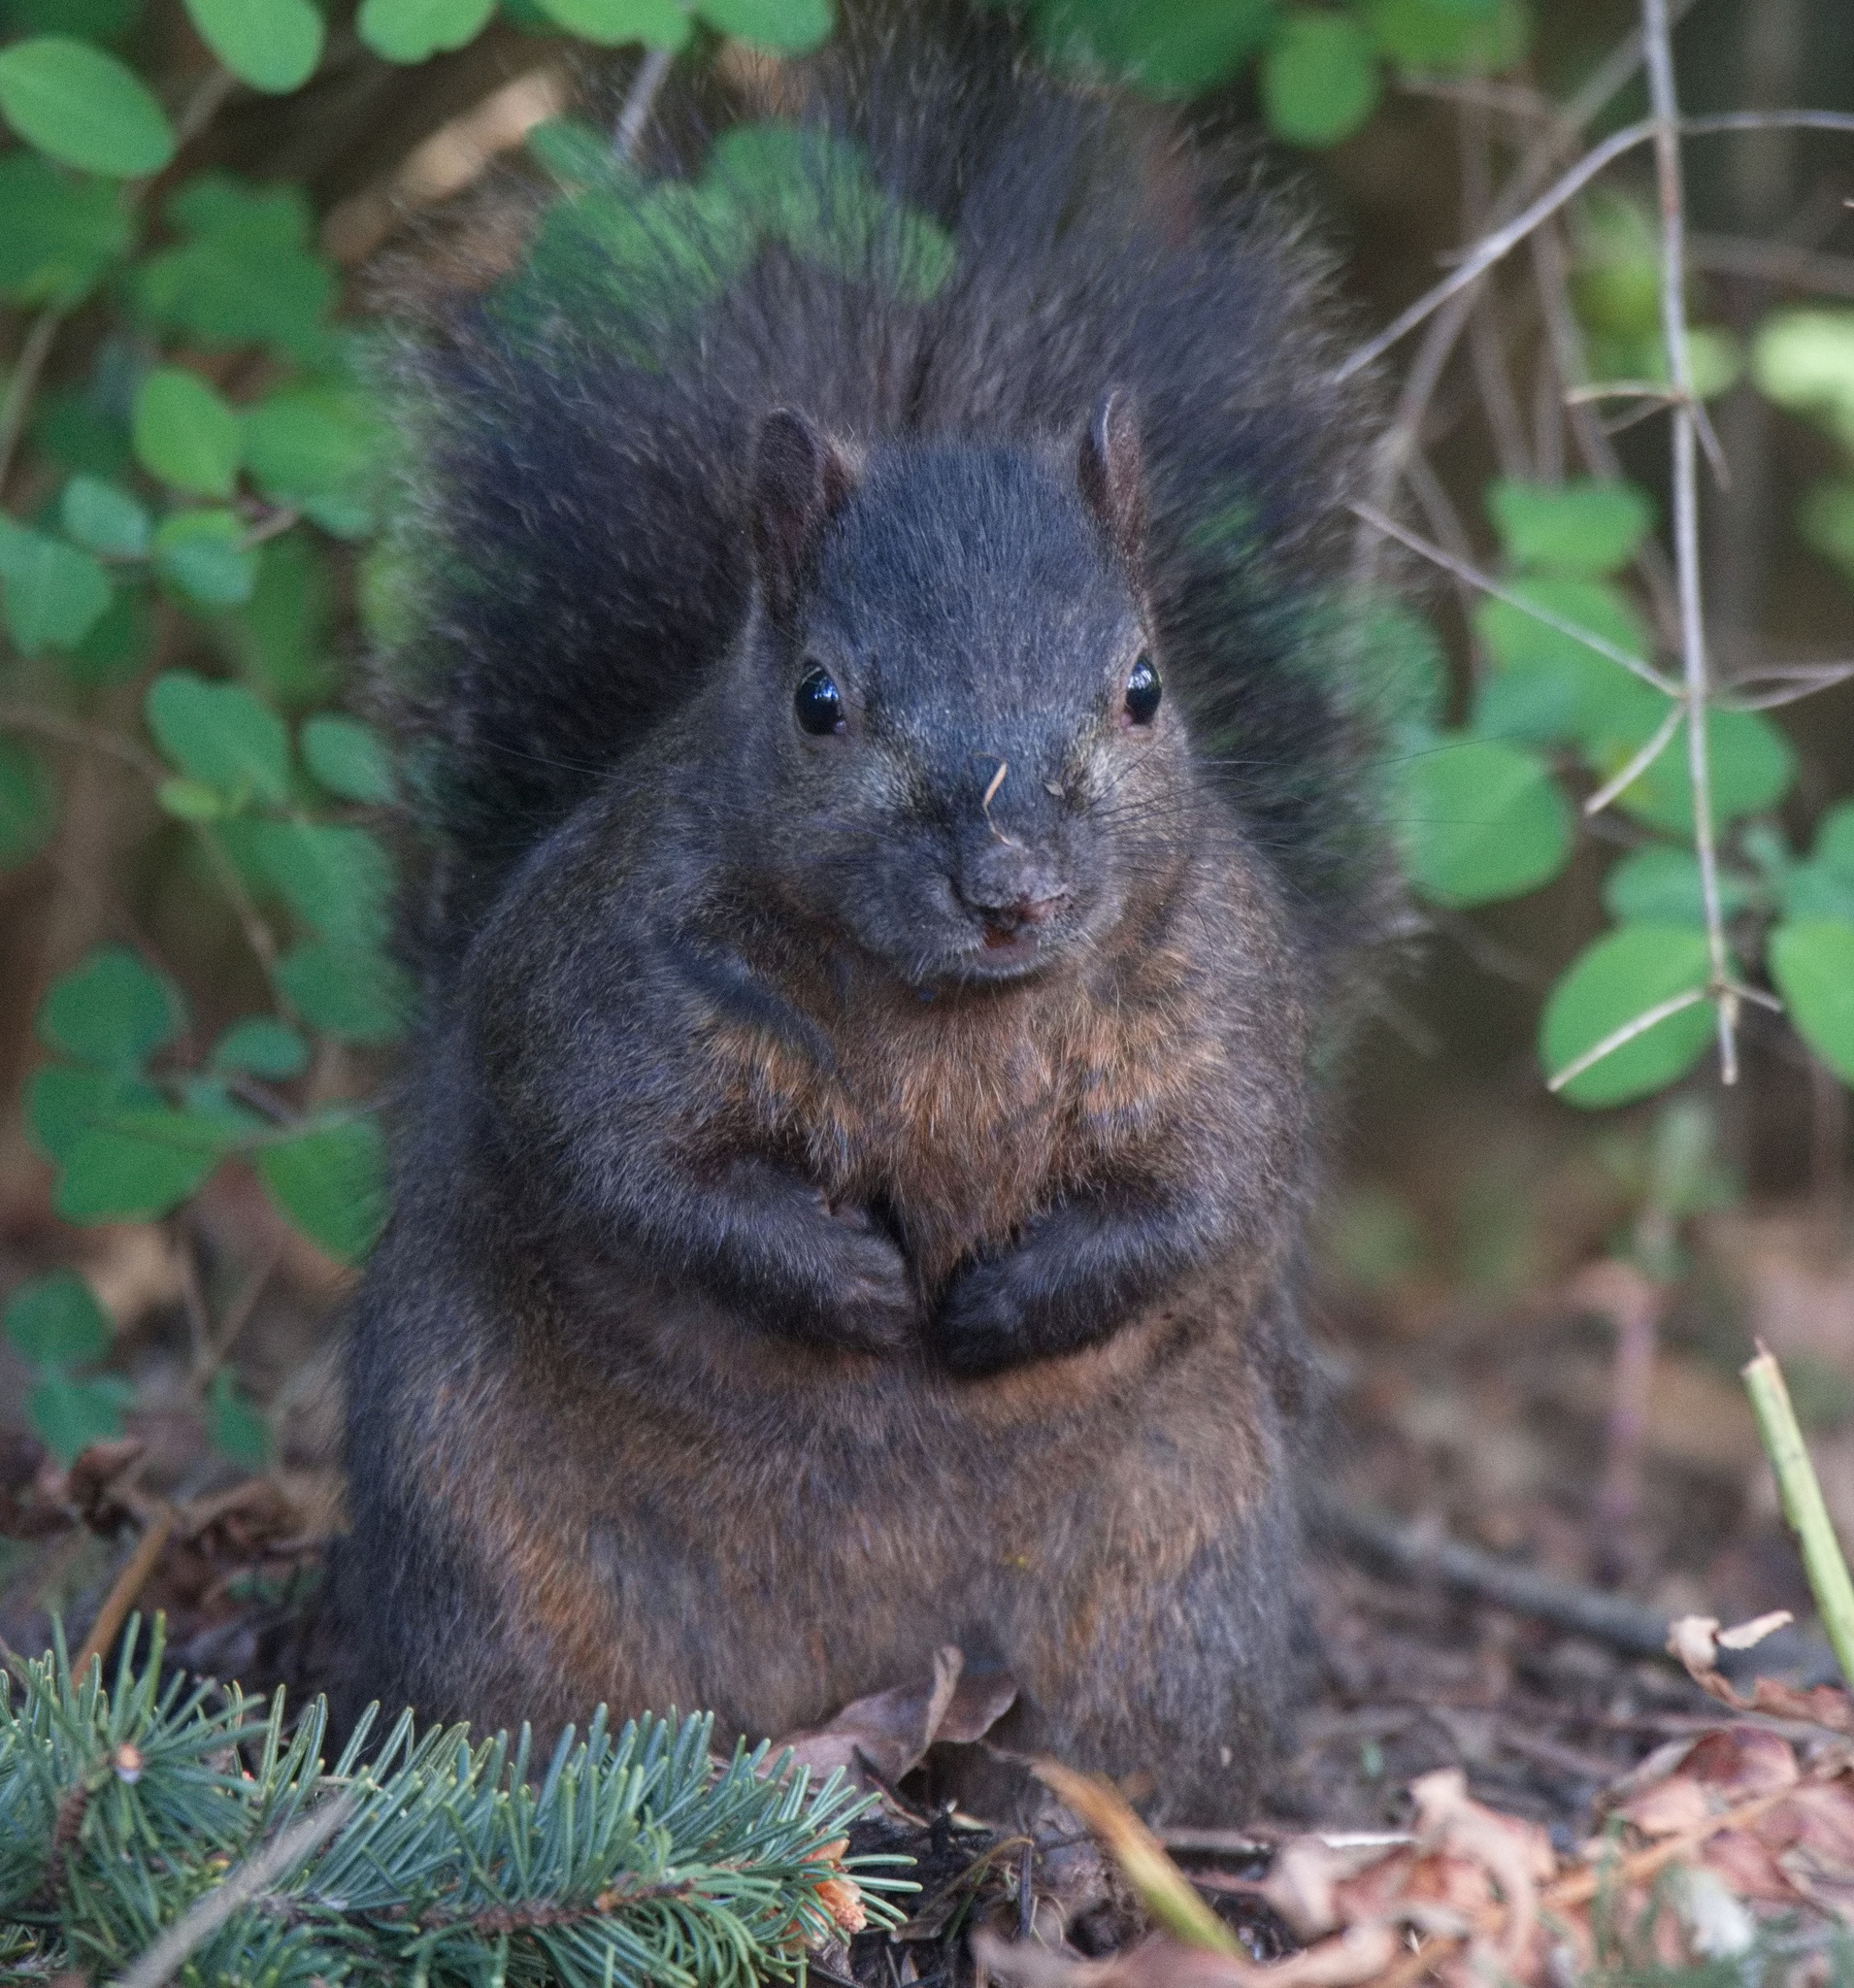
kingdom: Animalia
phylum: Chordata
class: Mammalia
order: Rodentia
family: Sciuridae
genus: Sciurus
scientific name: Sciurus carolinensis
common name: Eastern gray squirrel
